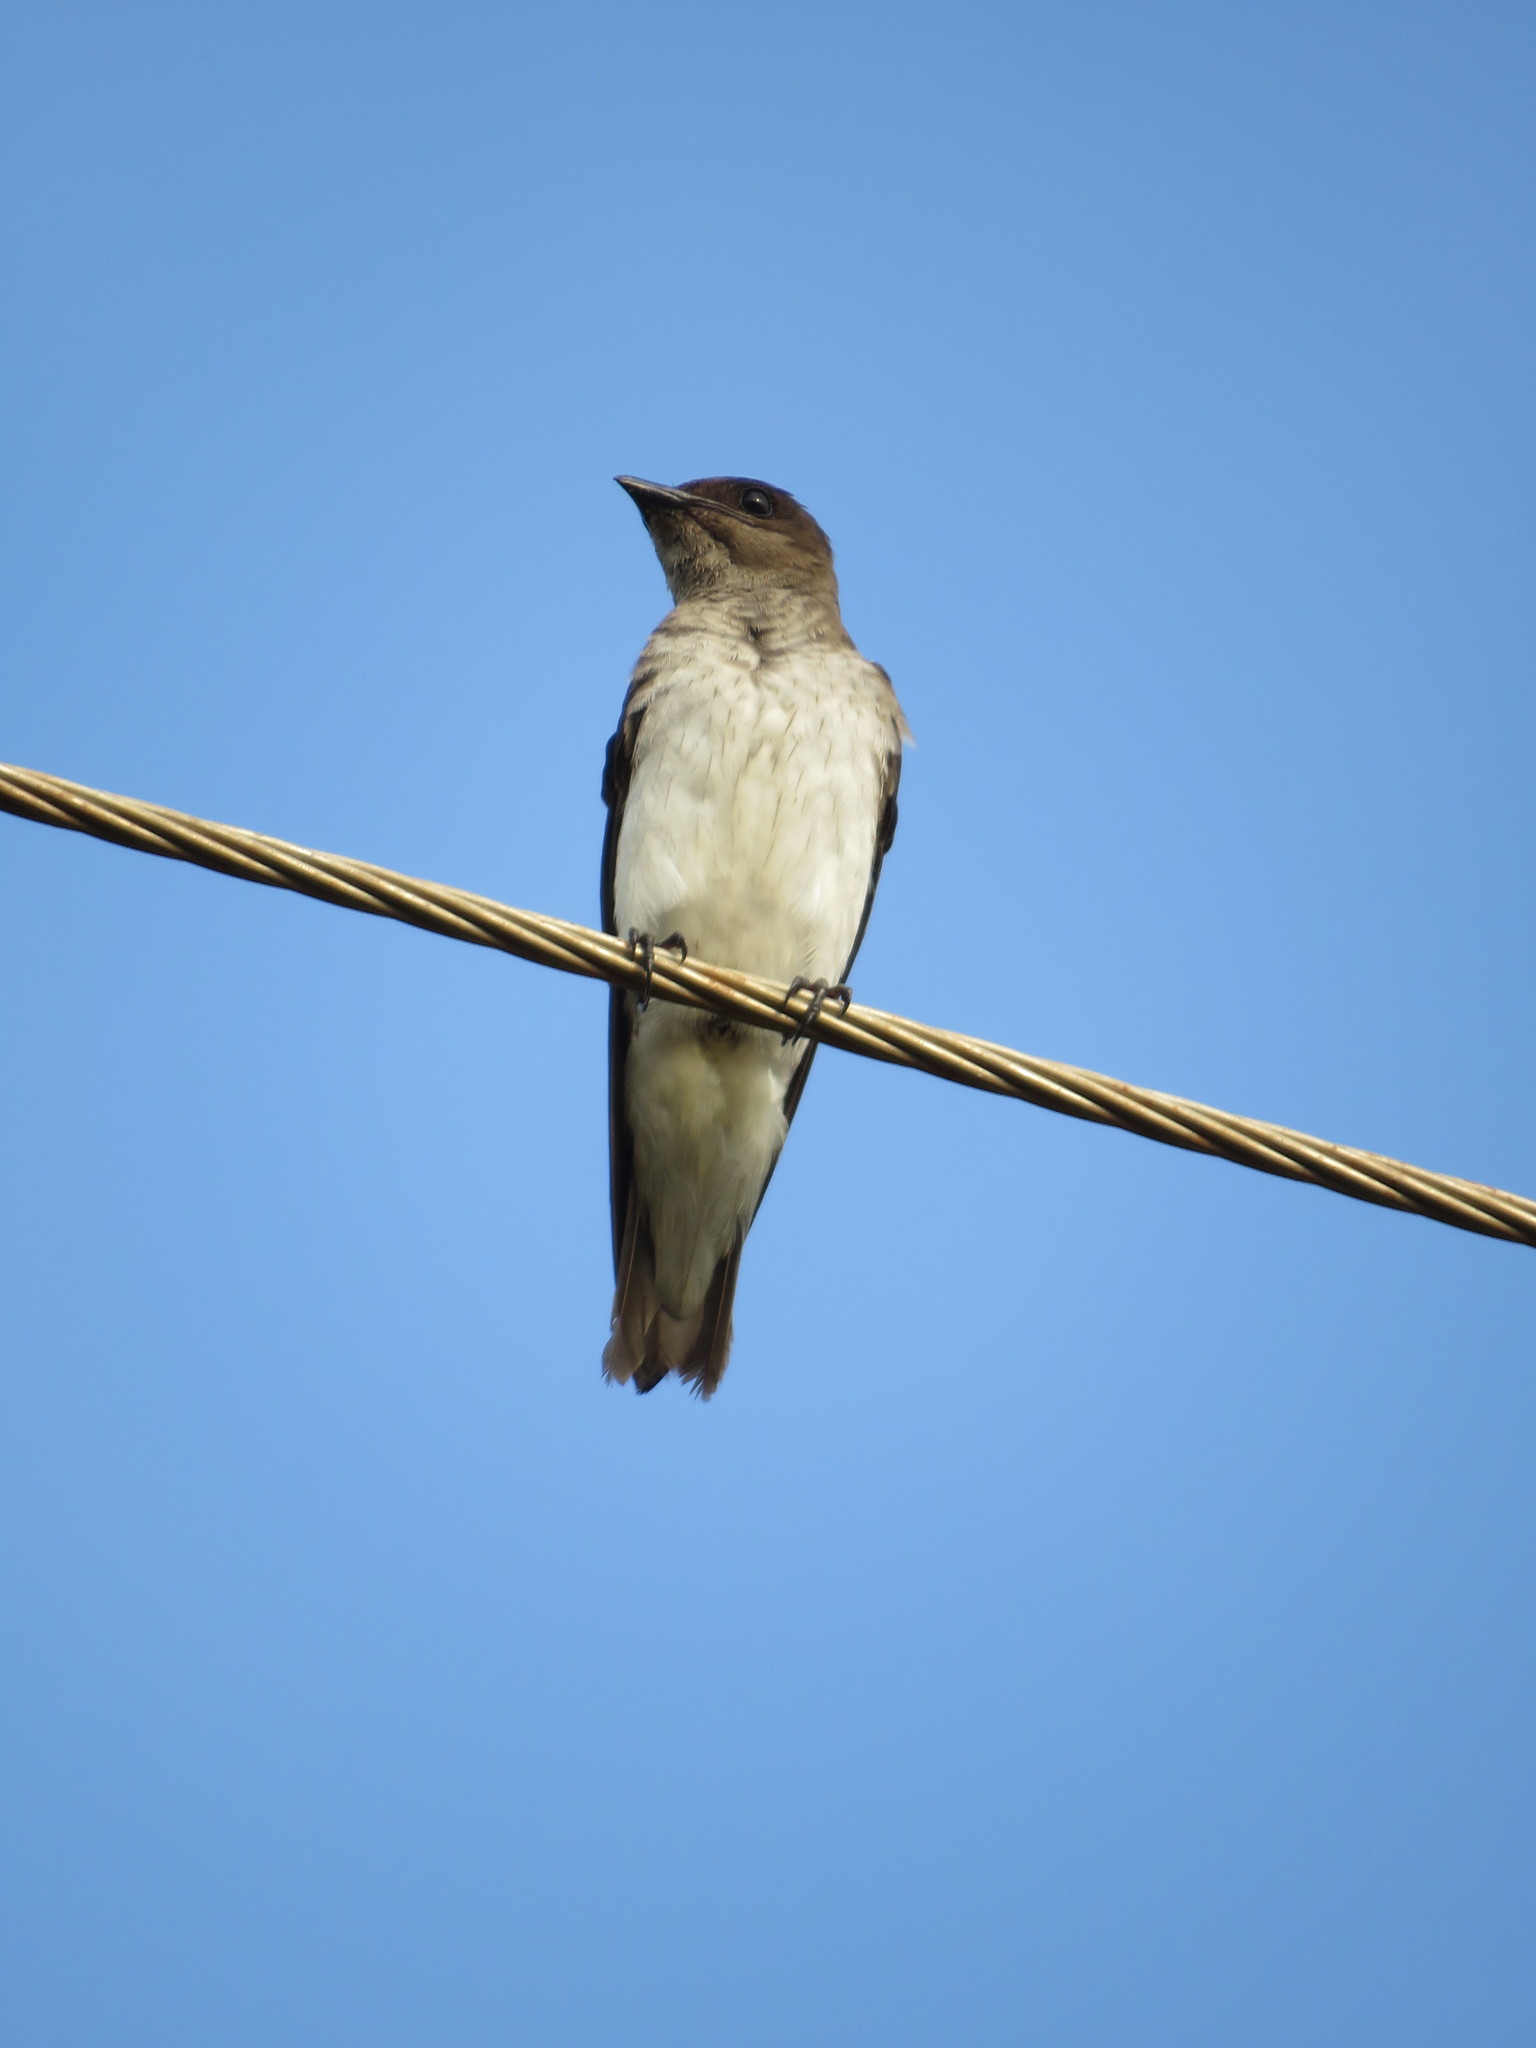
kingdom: Animalia
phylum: Chordata
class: Aves
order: Passeriformes
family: Hirundinidae
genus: Progne
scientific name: Progne chalybea
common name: Grey-breasted martin
